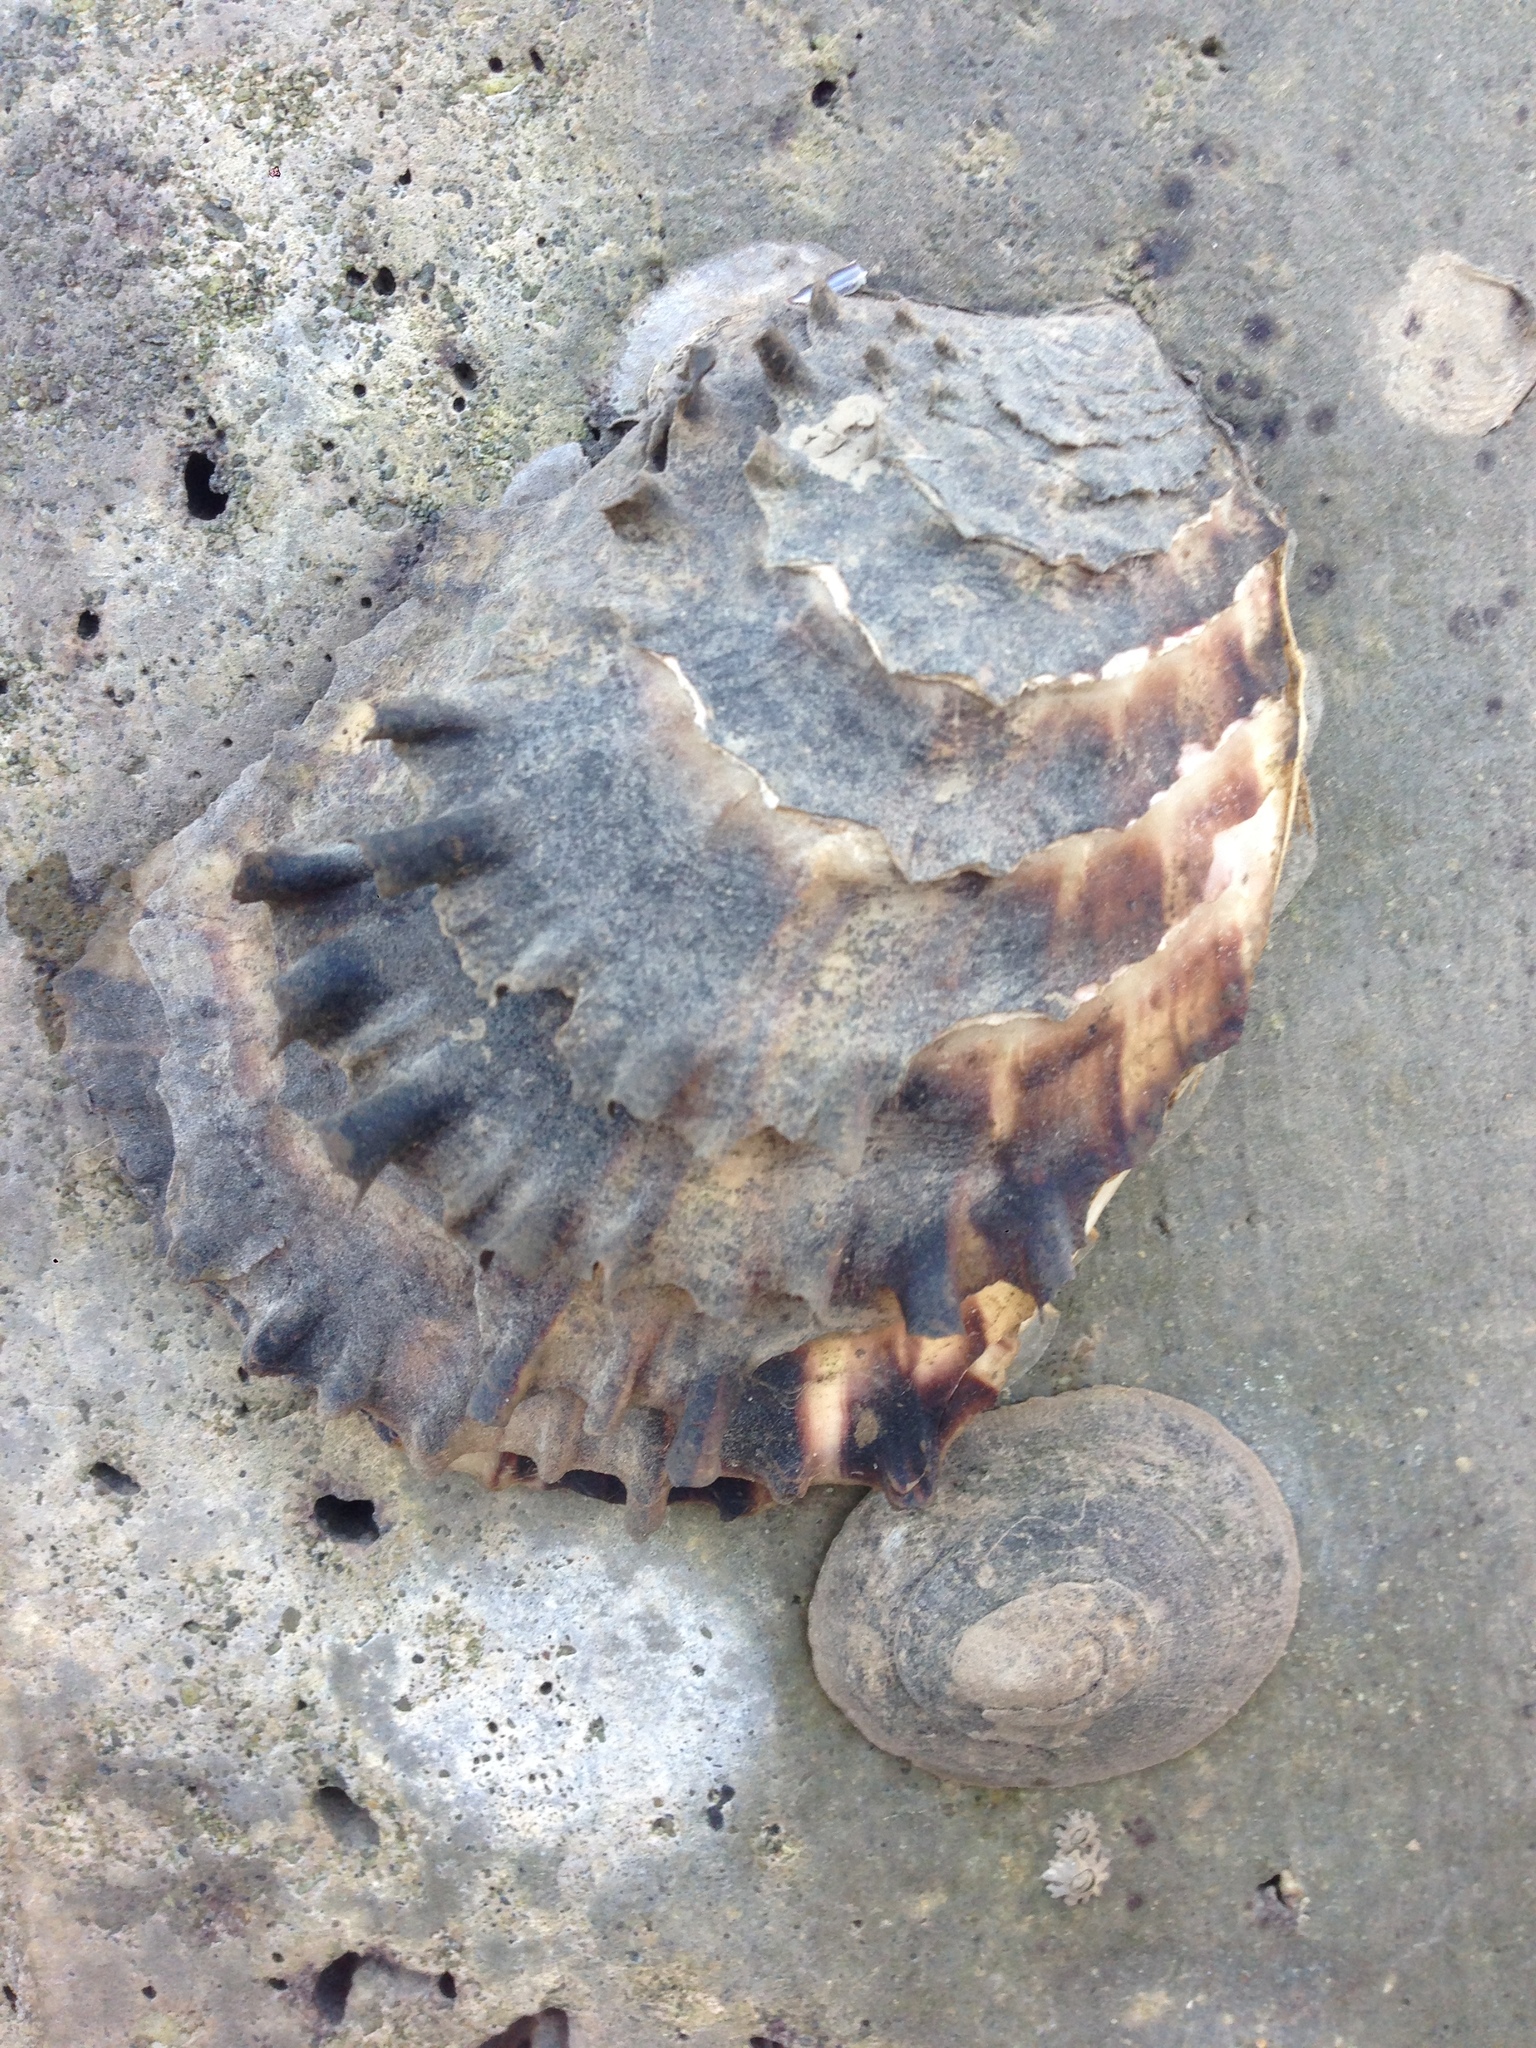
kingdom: Animalia
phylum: Mollusca
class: Bivalvia
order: Ostreida
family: Ostreidae
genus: Magallana
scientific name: Magallana gigas
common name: Pacific oyster
